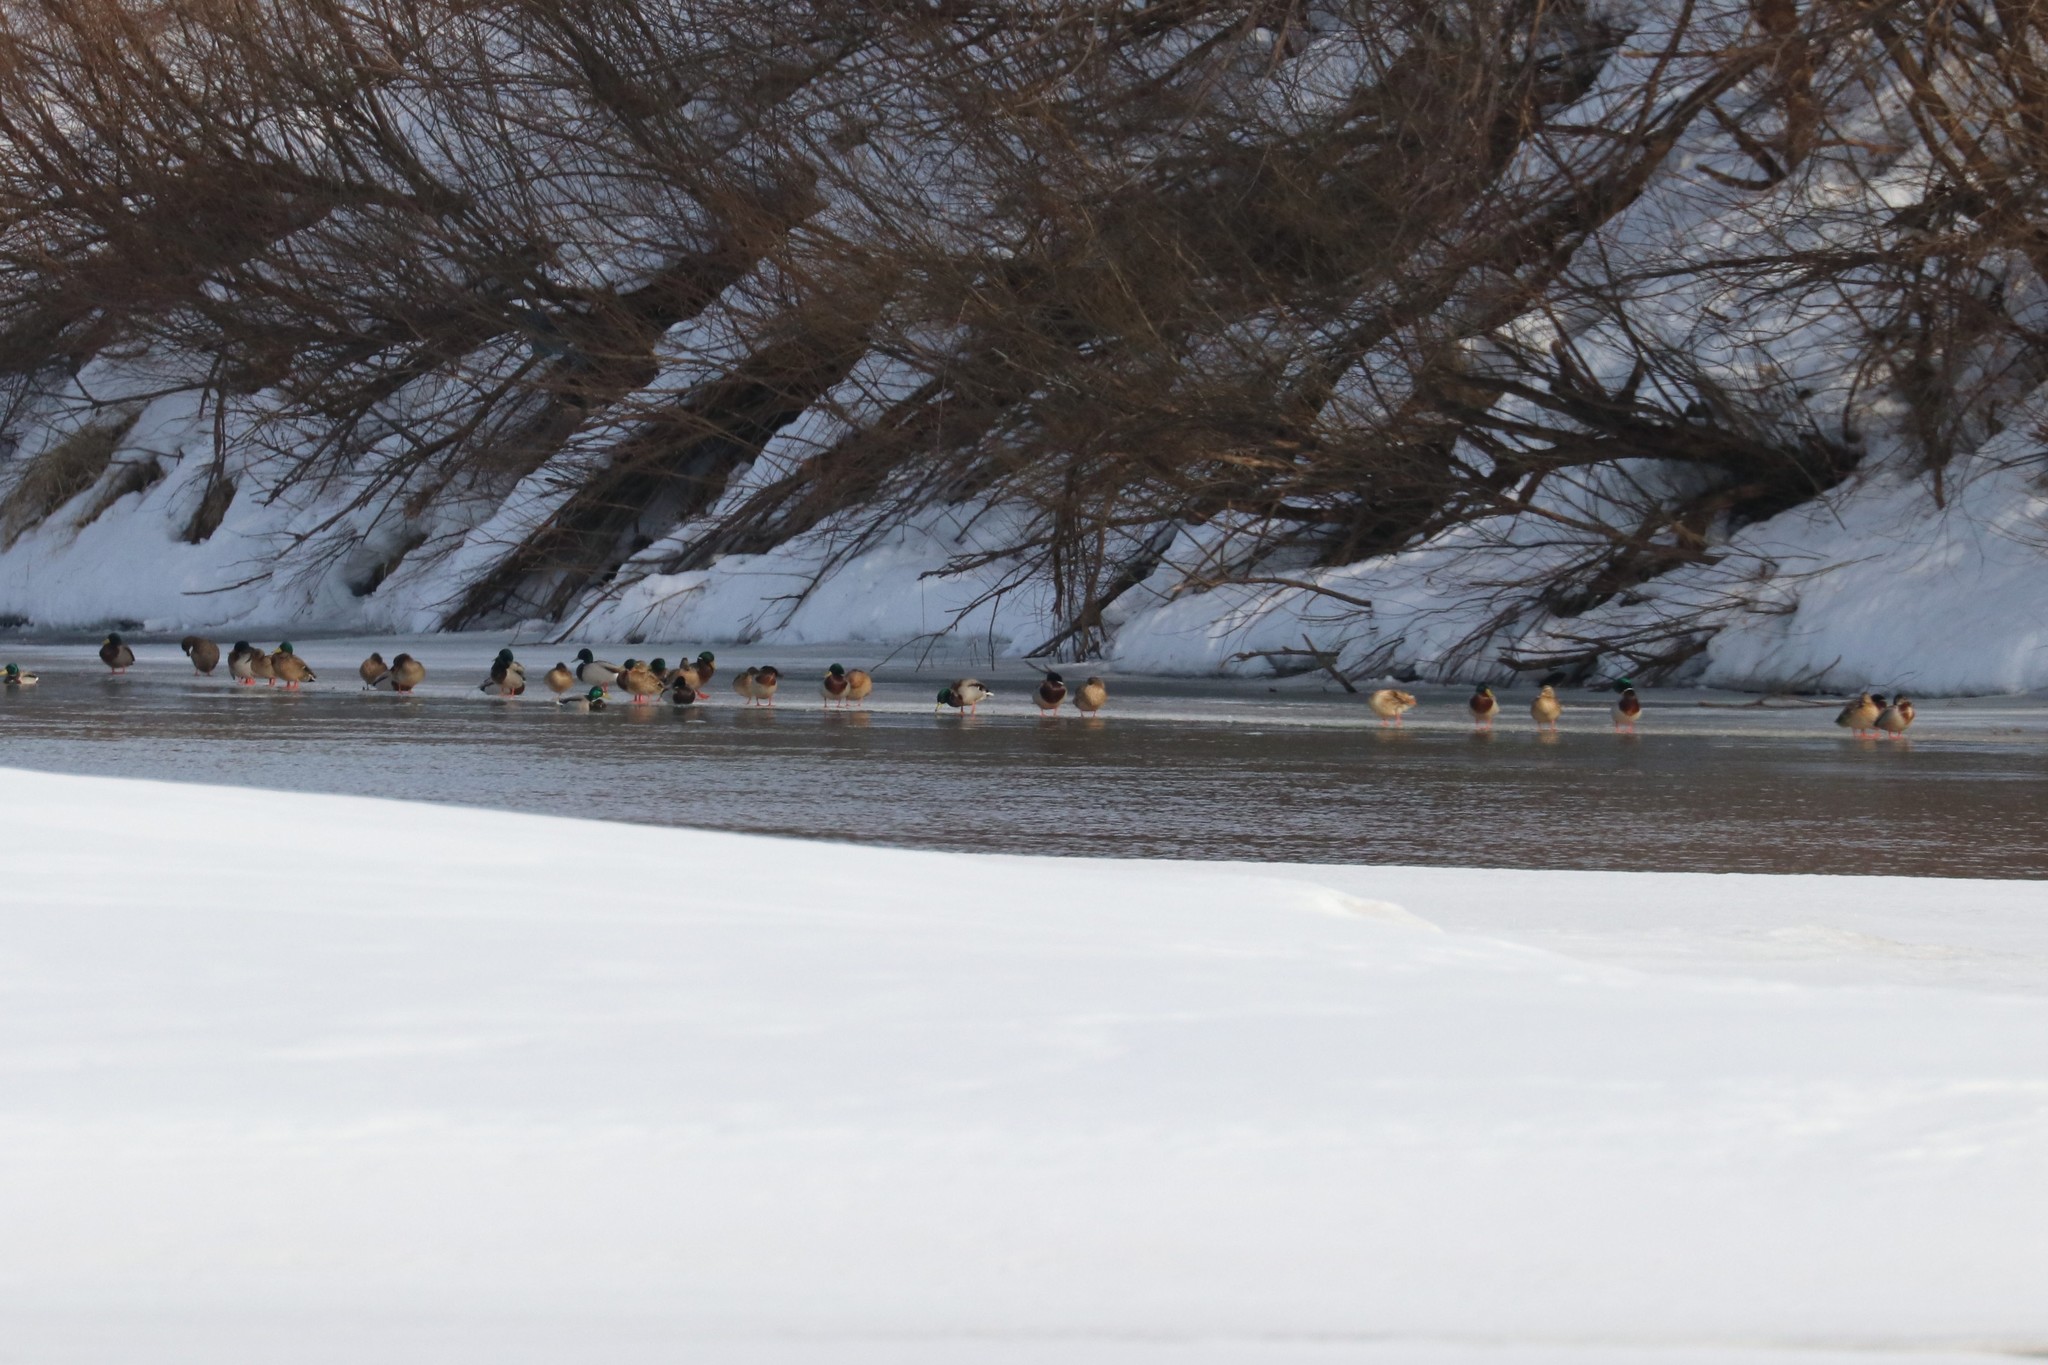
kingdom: Animalia
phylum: Chordata
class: Aves
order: Anseriformes
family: Anatidae
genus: Anas
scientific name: Anas platyrhynchos
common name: Mallard
